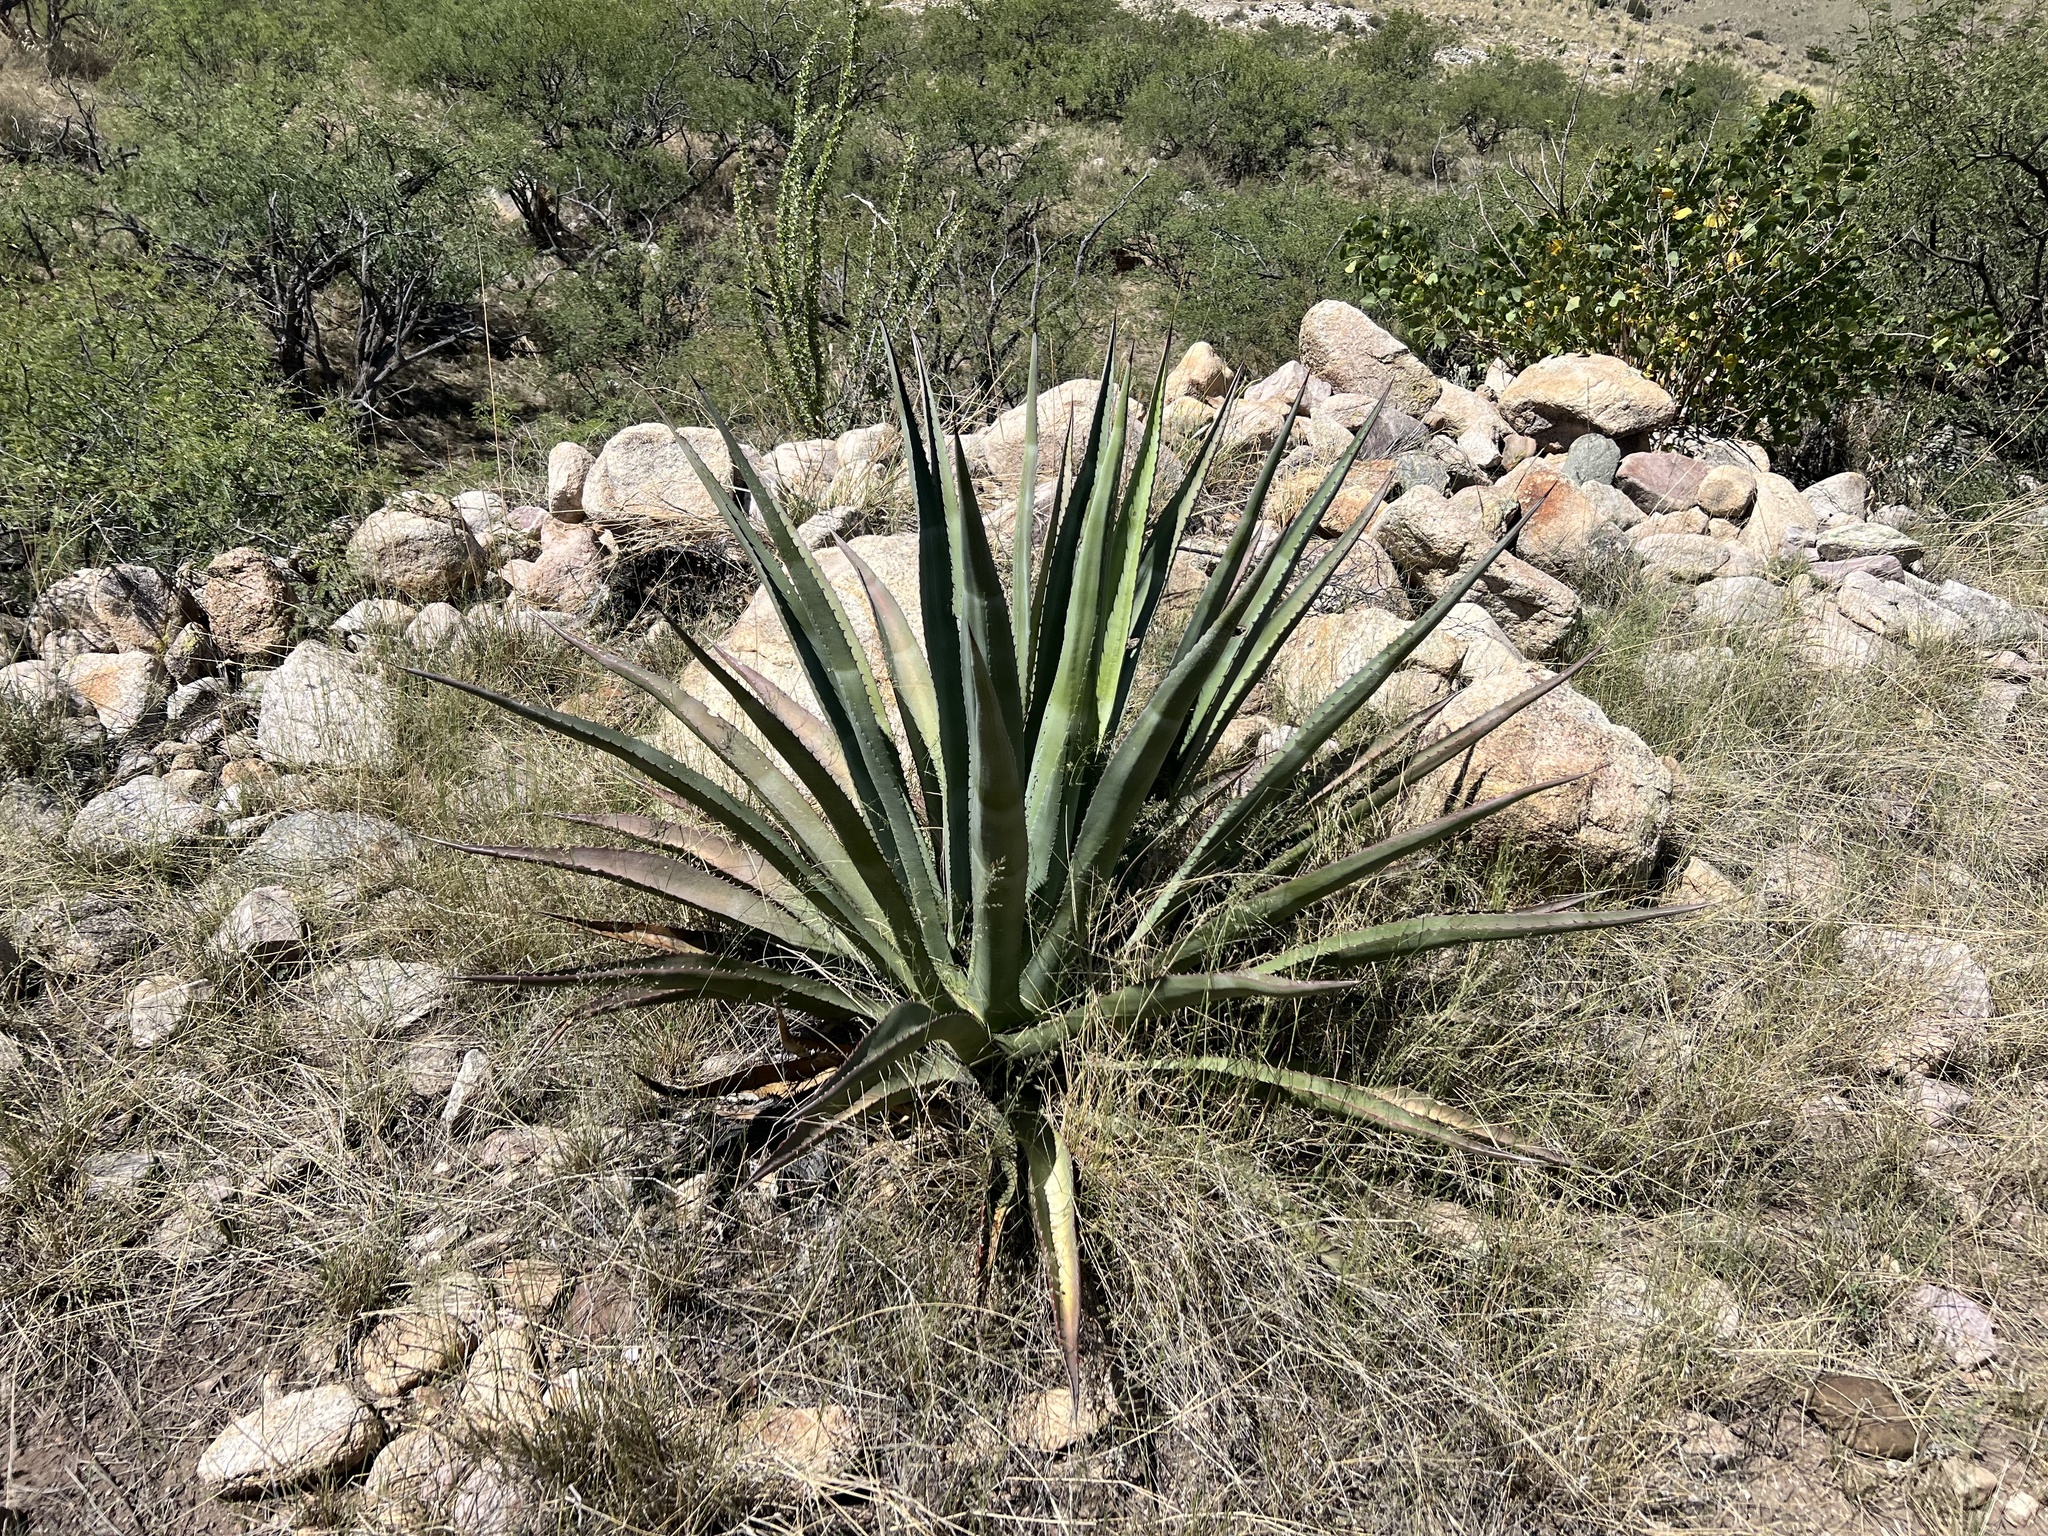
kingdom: Plantae
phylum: Tracheophyta
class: Liliopsida
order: Asparagales
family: Asparagaceae
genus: Agave
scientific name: Agave palmeri
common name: Palmer agave
